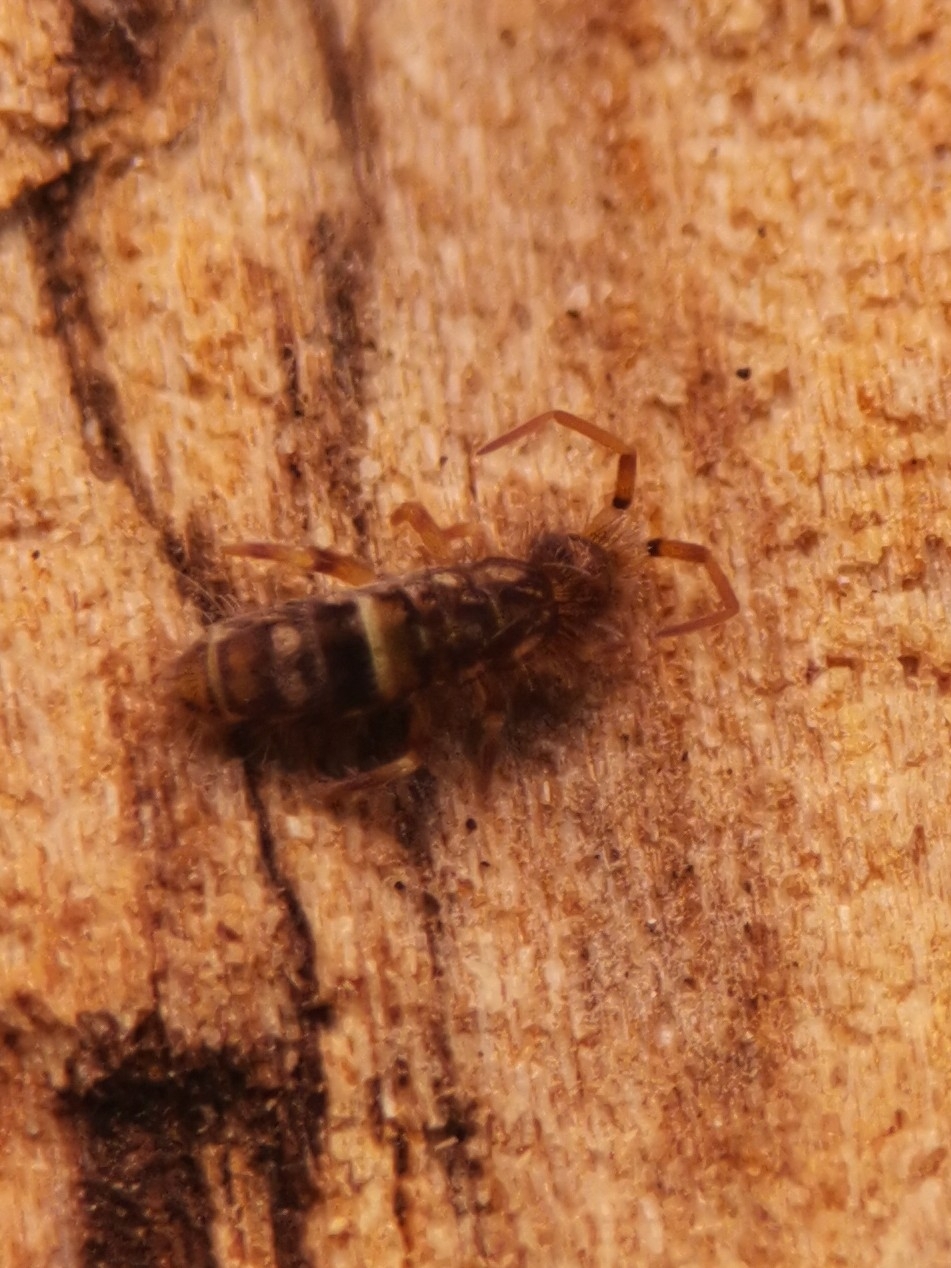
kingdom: Animalia
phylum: Arthropoda
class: Collembola
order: Entomobryomorpha
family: Orchesellidae
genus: Orchesella
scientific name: Orchesella cincta
